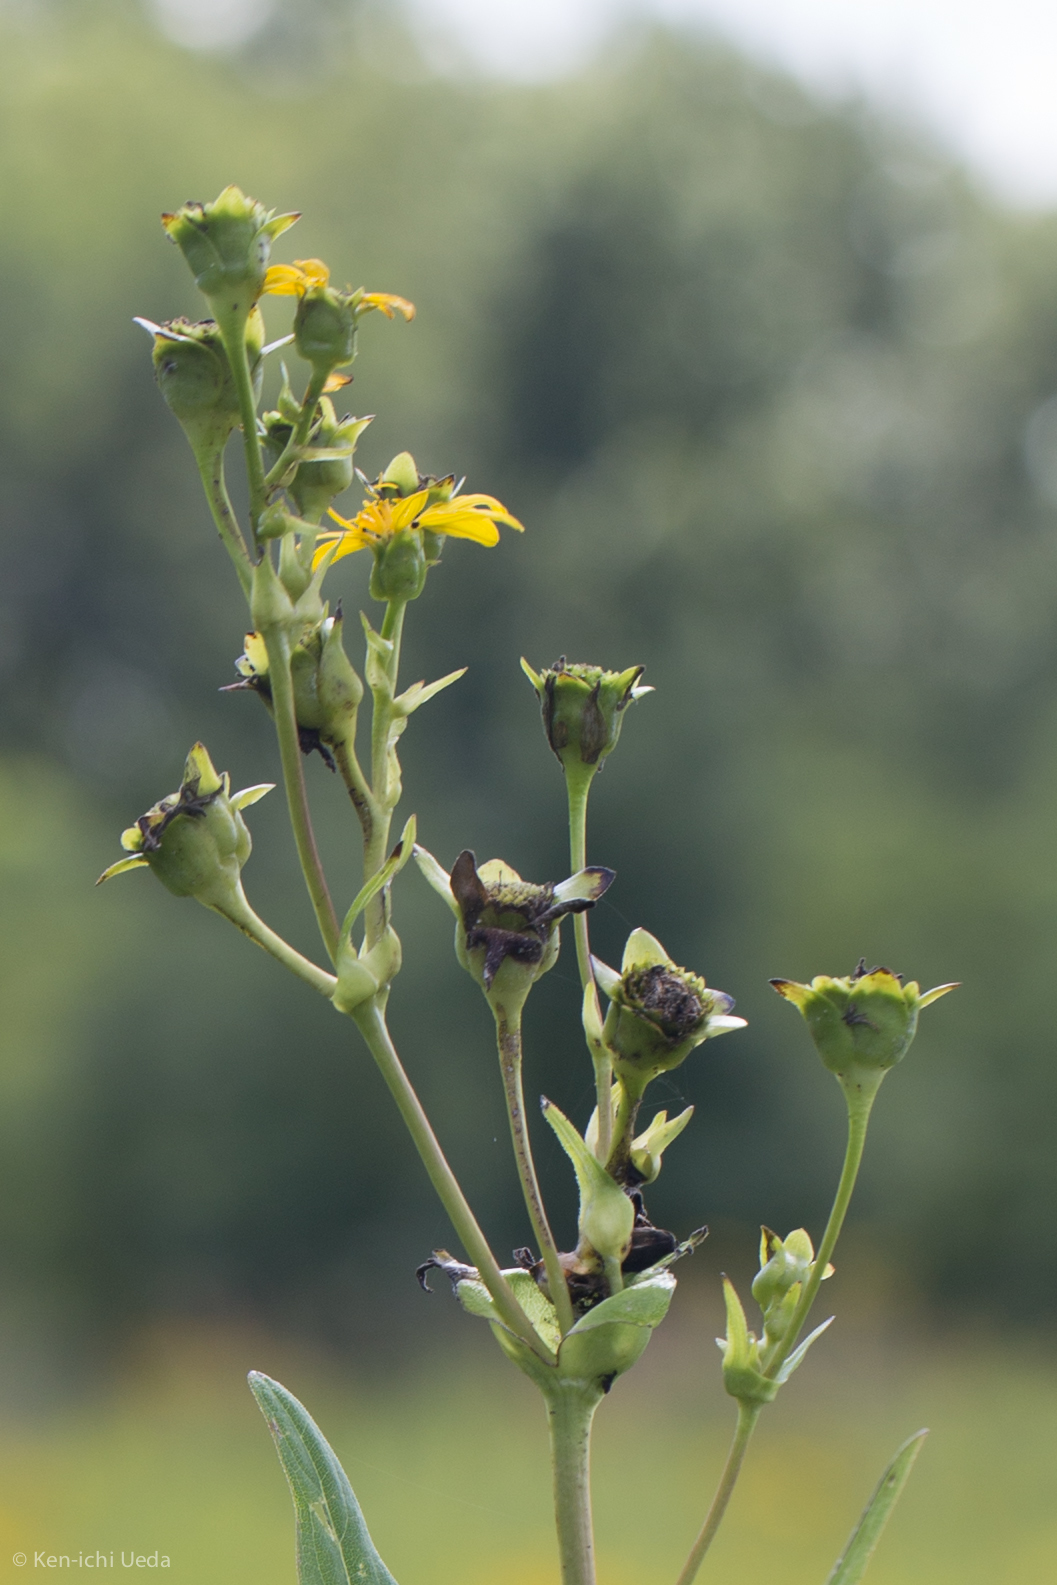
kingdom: Plantae
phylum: Tracheophyta
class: Magnoliopsida
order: Asterales
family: Asteraceae
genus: Silphium
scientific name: Silphium perfoliatum
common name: Cup-plant
